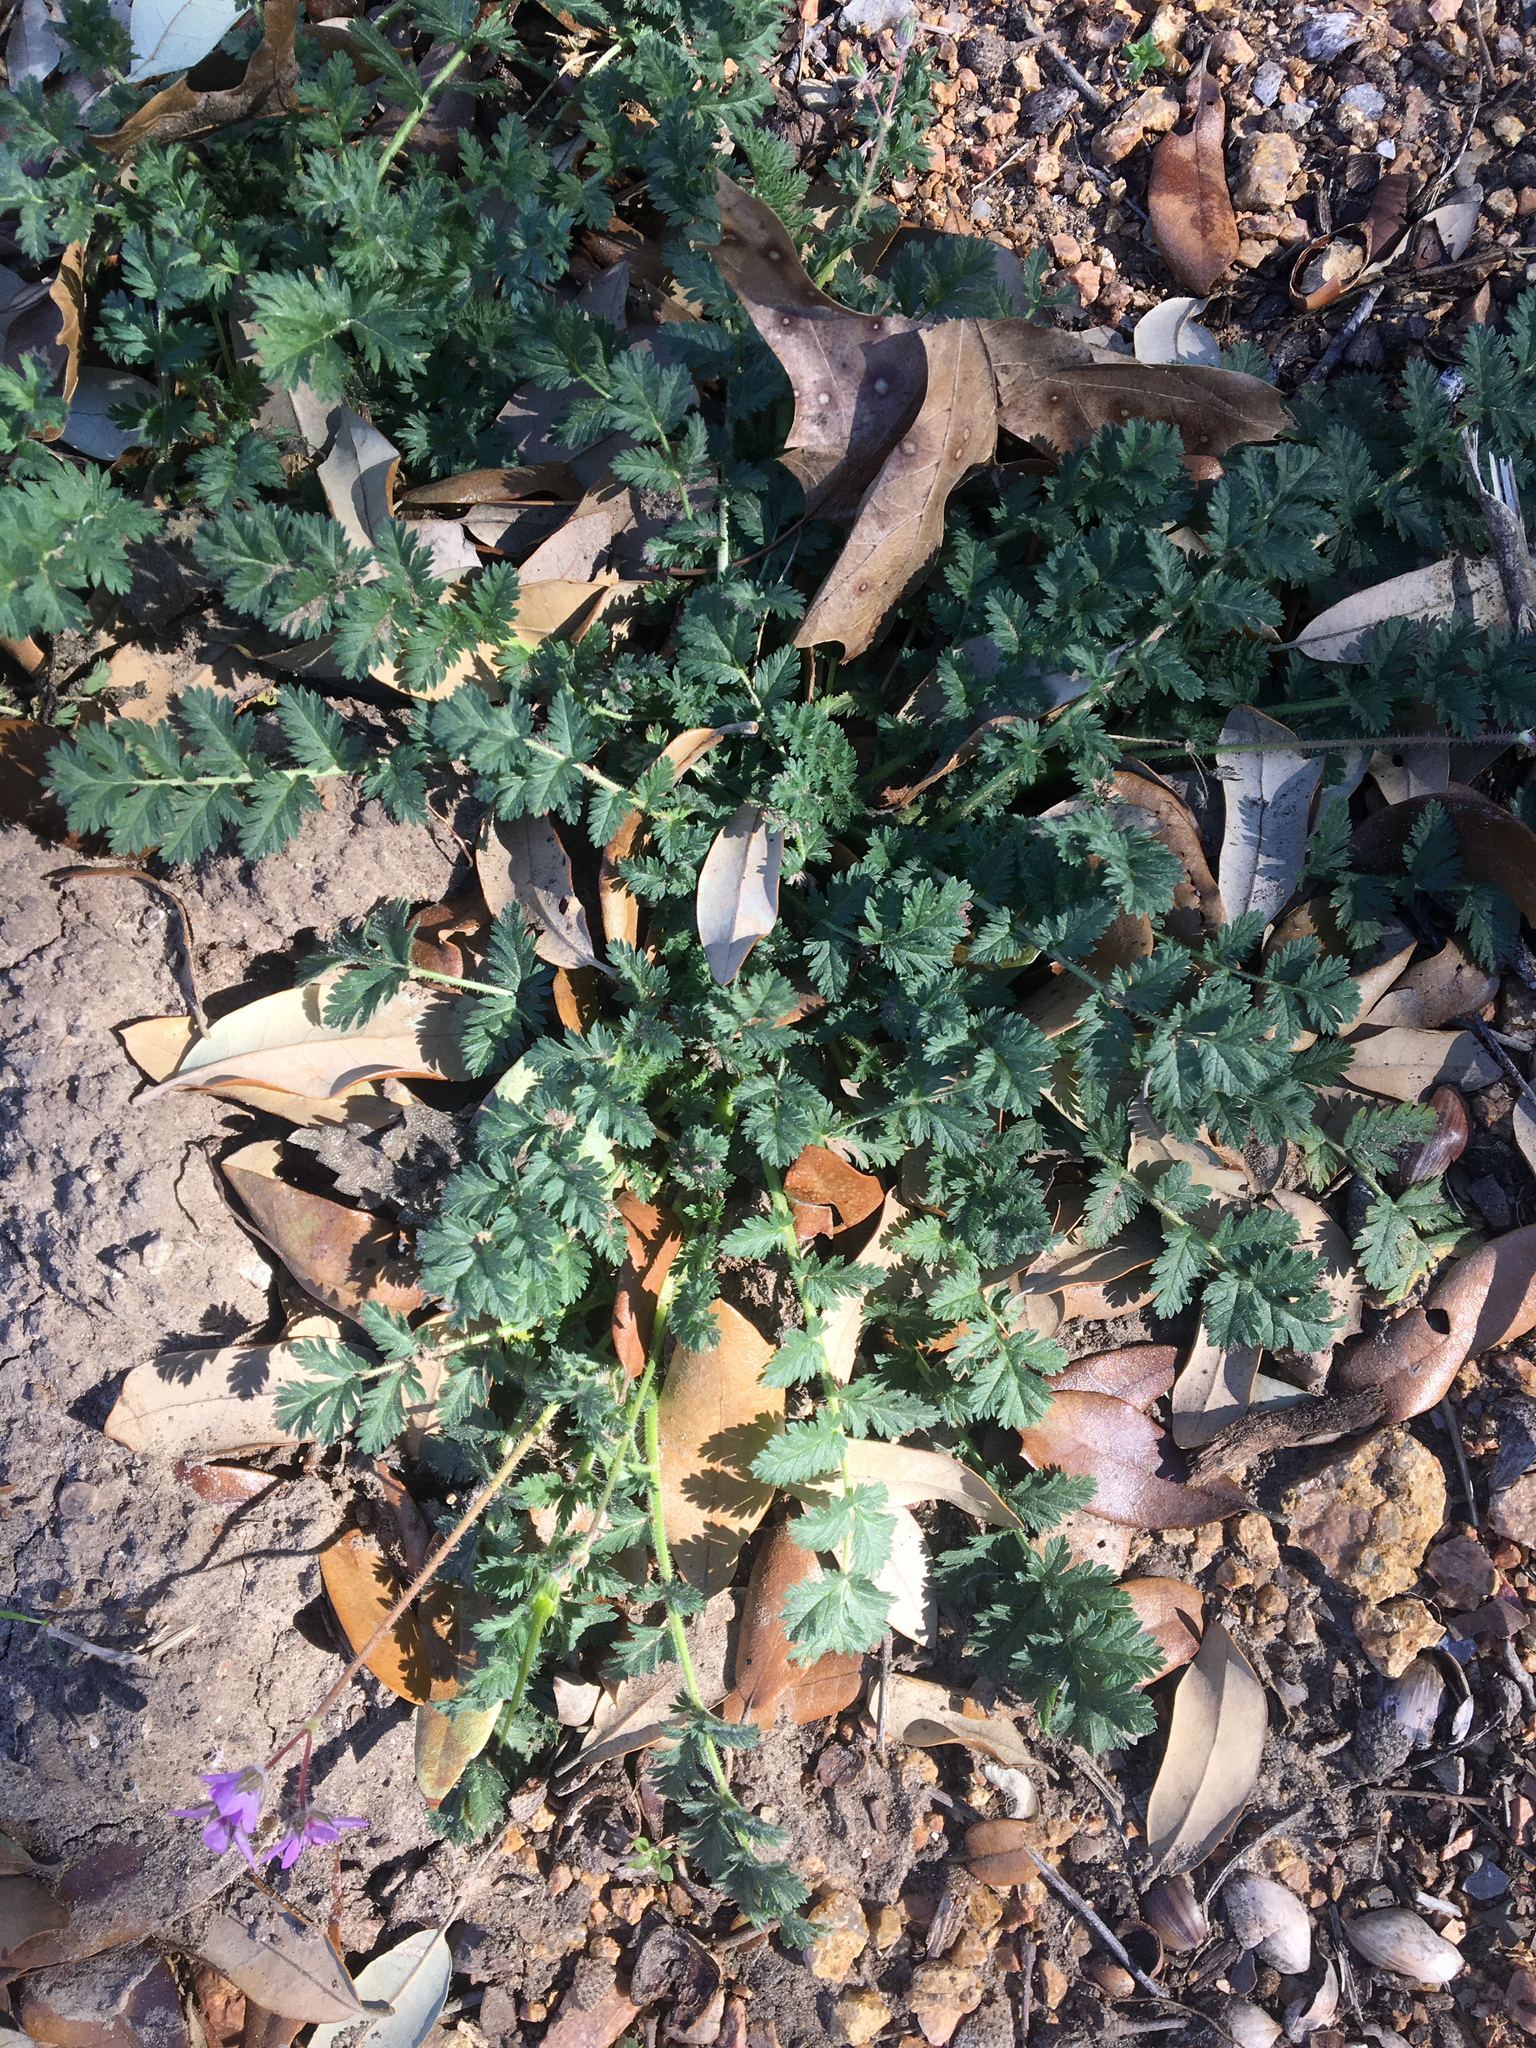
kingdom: Plantae
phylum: Tracheophyta
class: Magnoliopsida
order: Geraniales
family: Geraniaceae
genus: Erodium
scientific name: Erodium cicutarium
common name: Common stork's-bill
